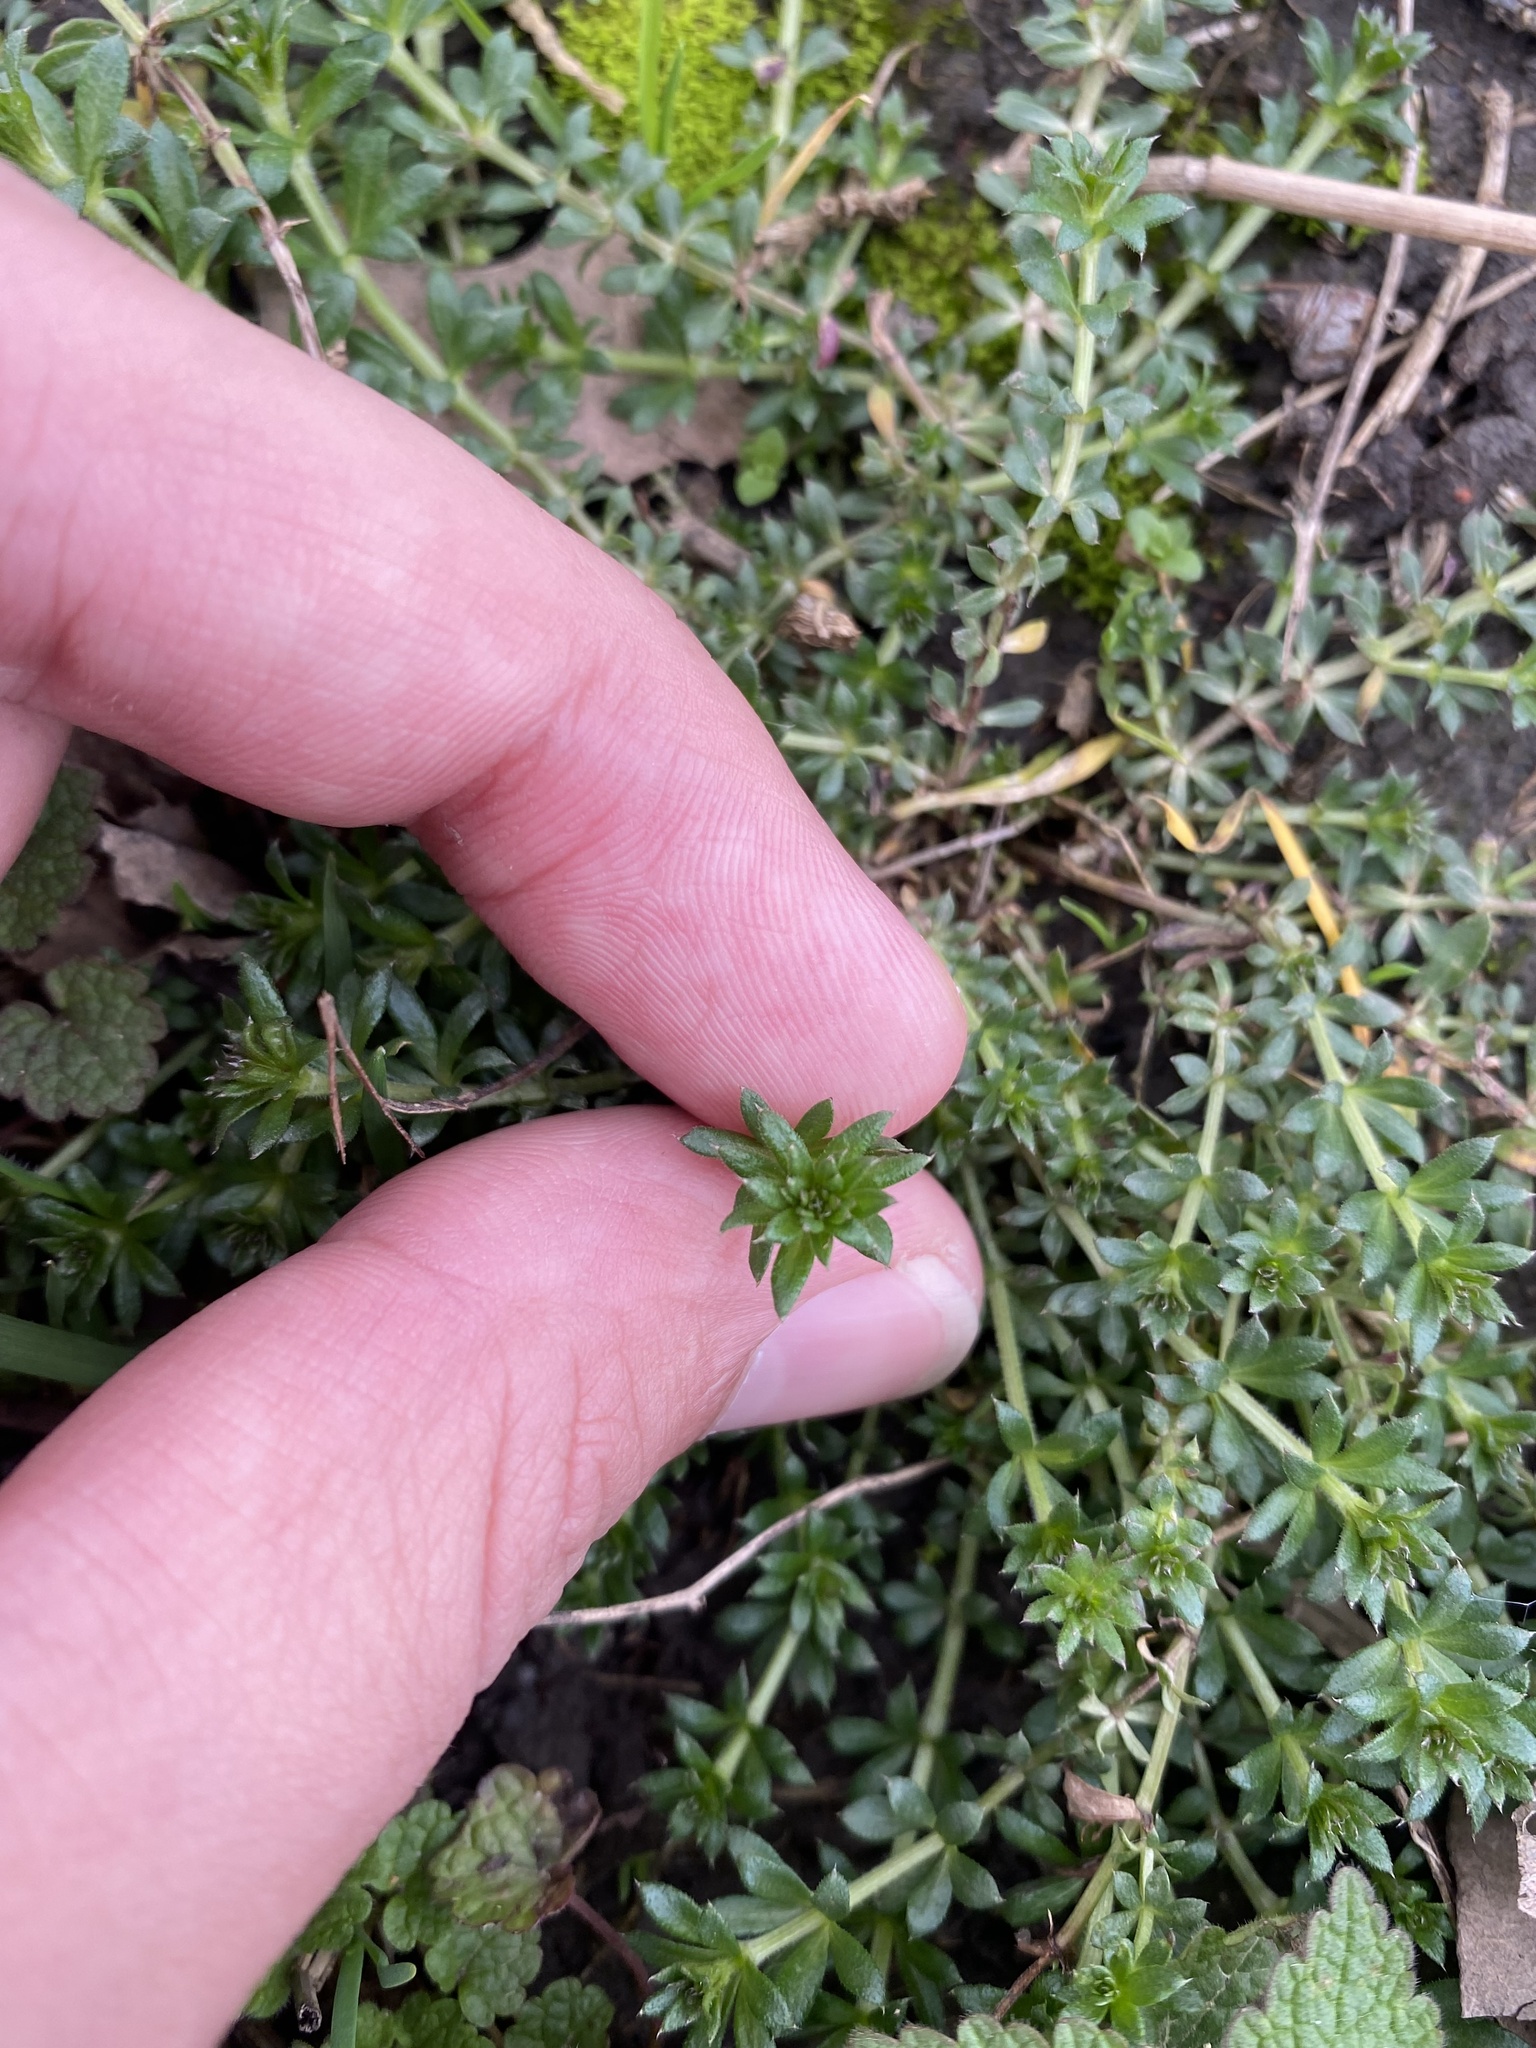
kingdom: Plantae
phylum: Tracheophyta
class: Magnoliopsida
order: Gentianales
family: Rubiaceae
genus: Galium
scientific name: Galium humifusum
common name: Spreading bedstraw
